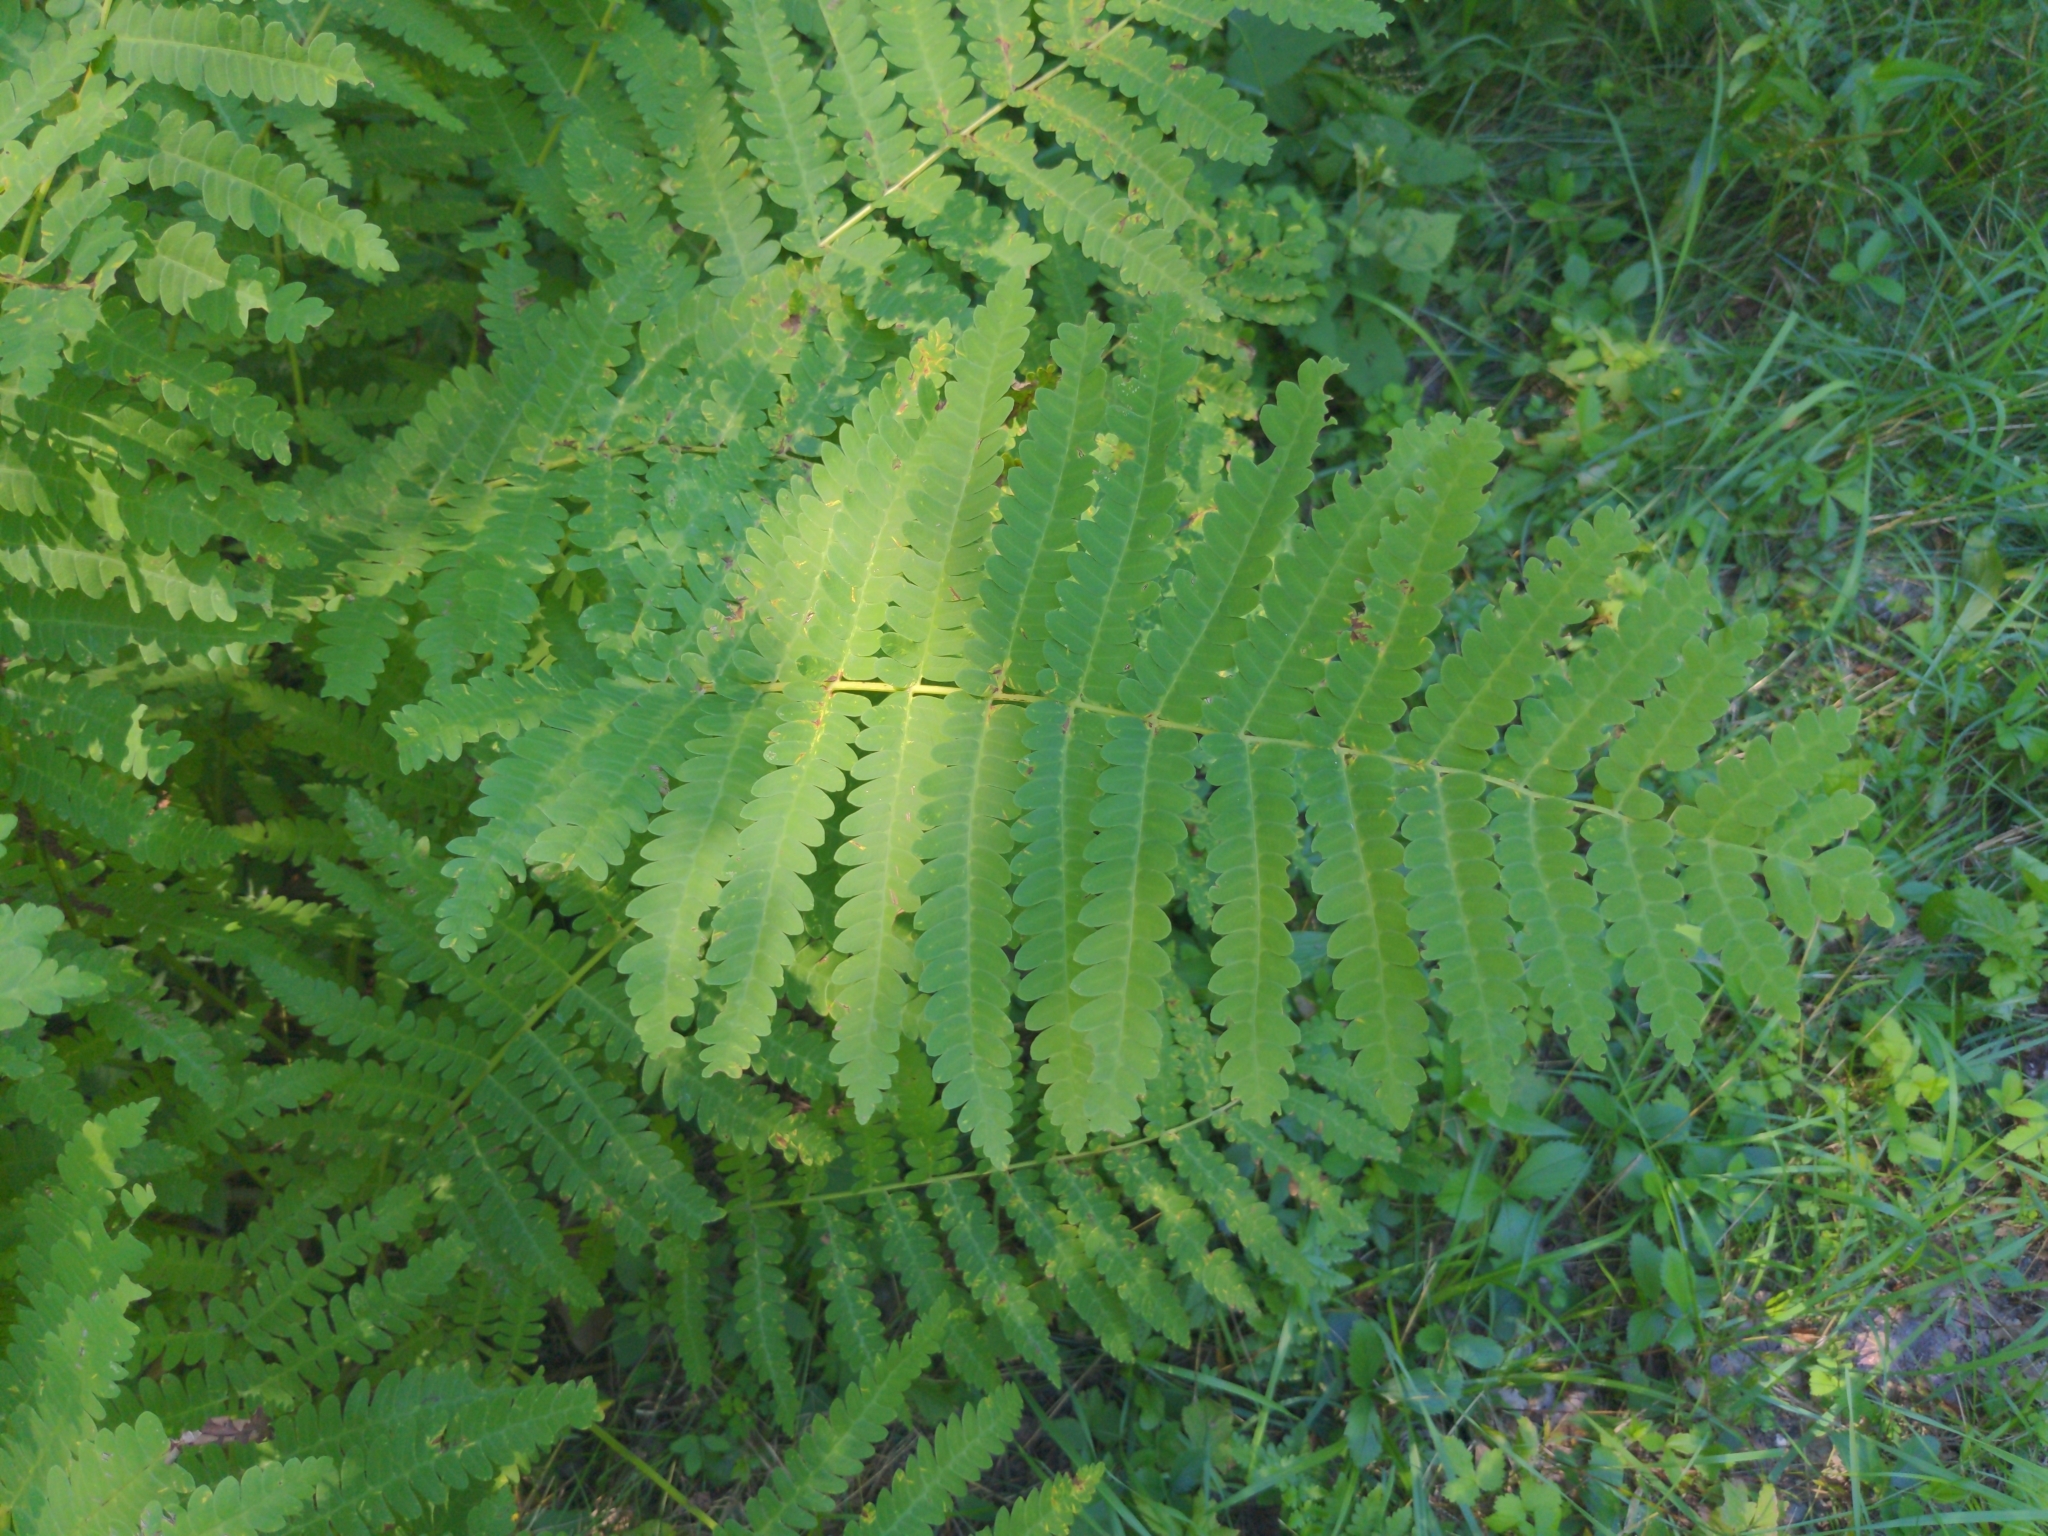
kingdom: Plantae
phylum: Tracheophyta
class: Polypodiopsida
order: Osmundales
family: Osmundaceae
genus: Claytosmunda
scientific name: Claytosmunda claytoniana
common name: Clayton's fern
